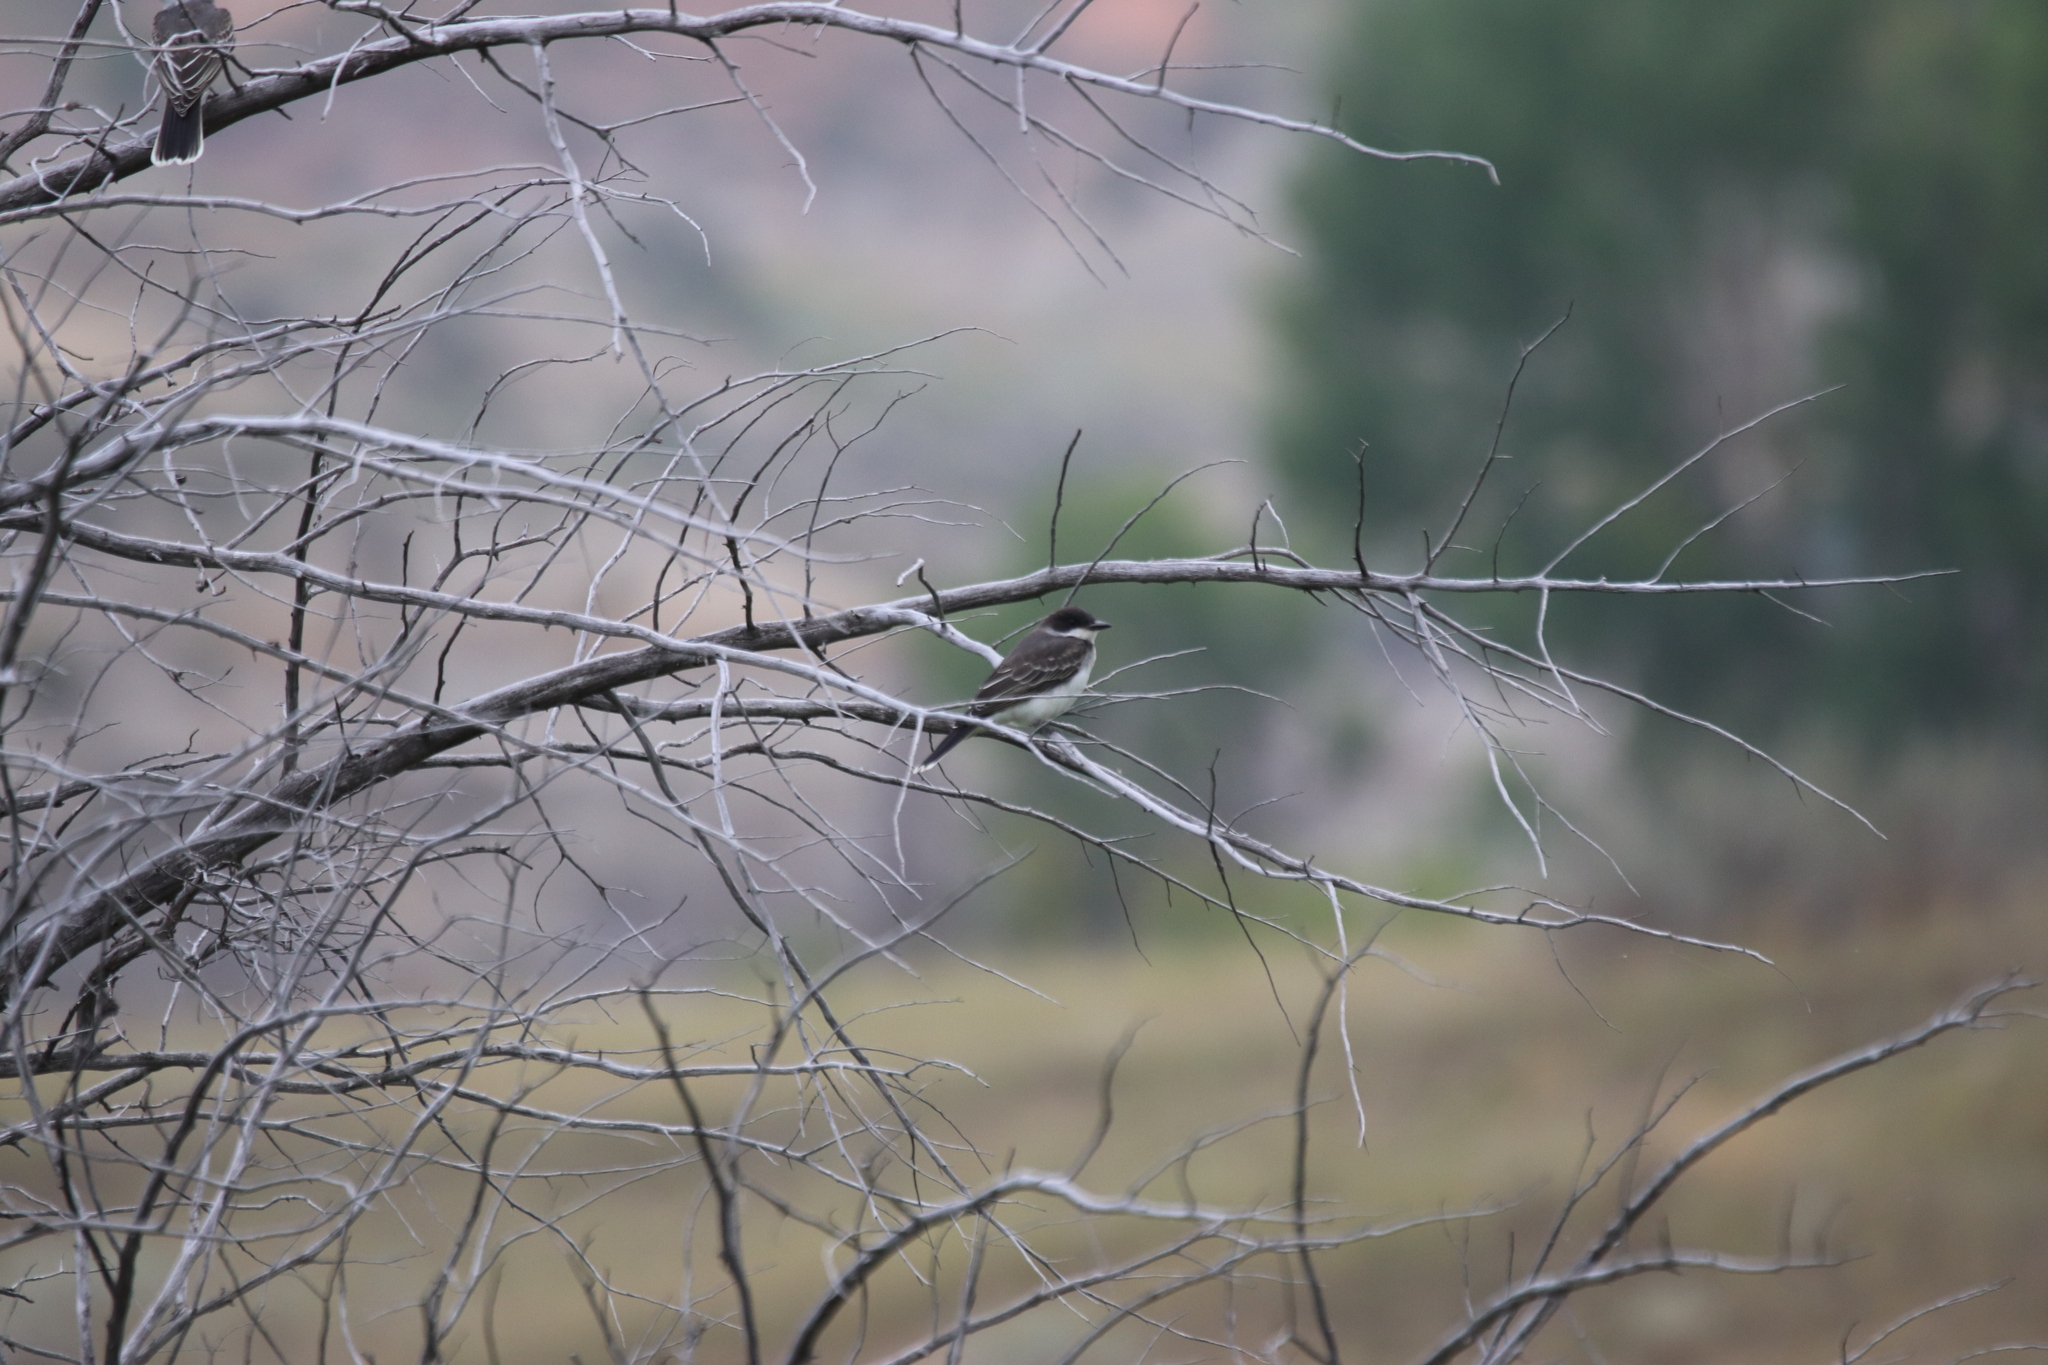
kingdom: Animalia
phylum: Chordata
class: Aves
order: Passeriformes
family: Tyrannidae
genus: Tyrannus
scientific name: Tyrannus tyrannus
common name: Eastern kingbird
